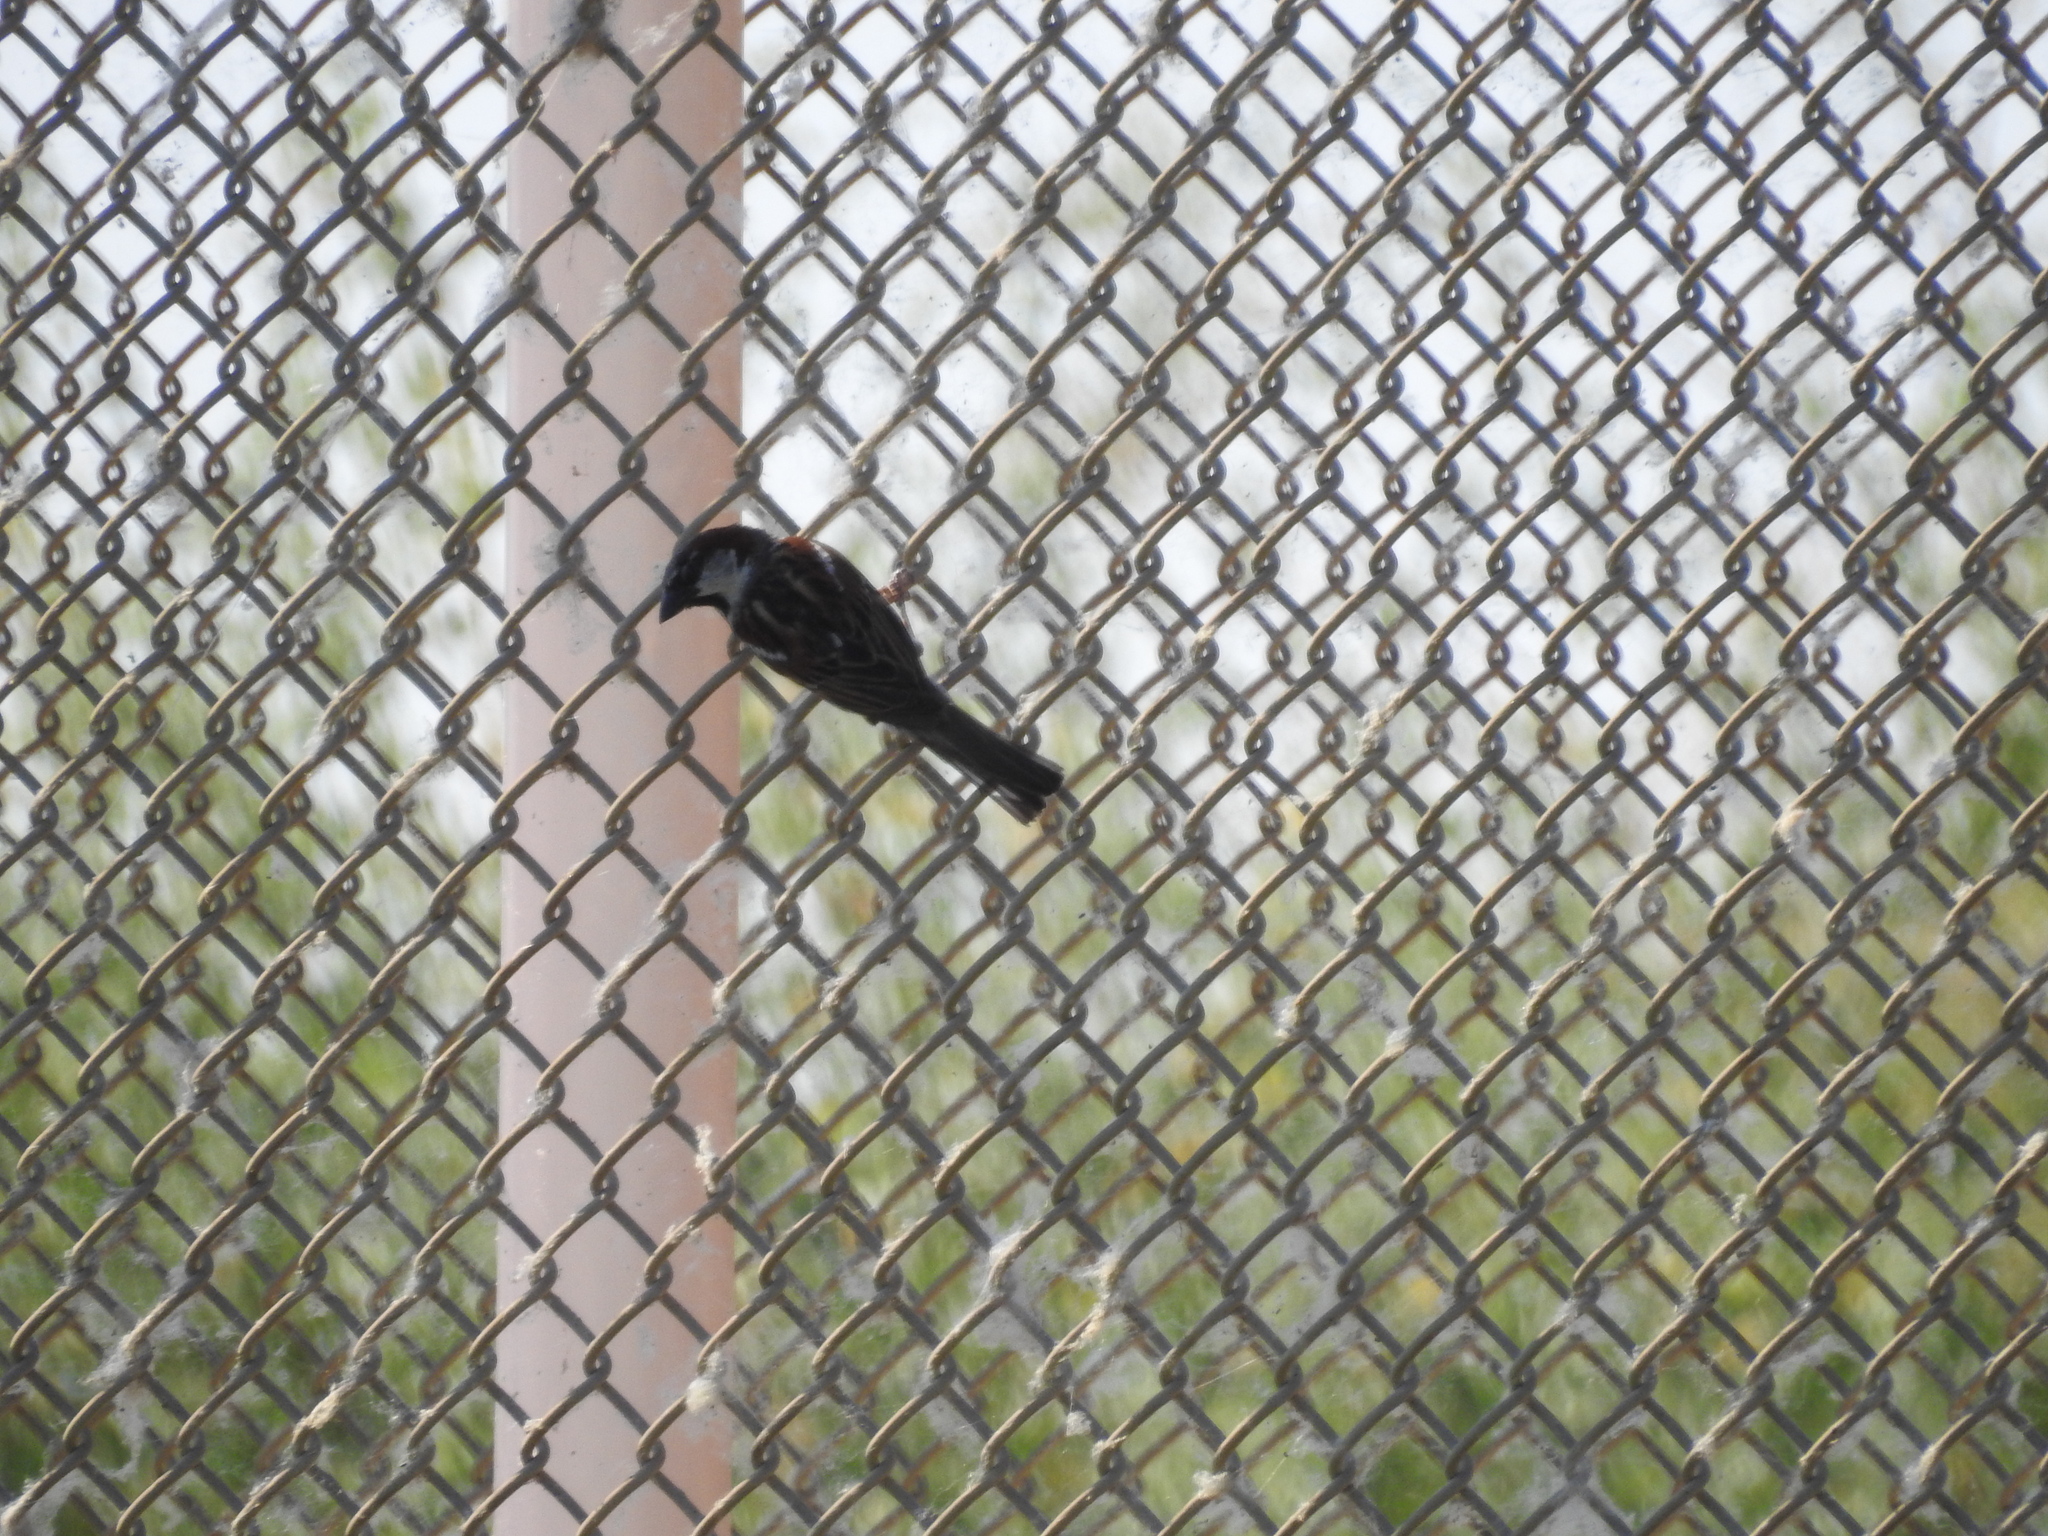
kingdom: Animalia
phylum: Chordata
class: Aves
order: Passeriformes
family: Passeridae
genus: Passer
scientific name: Passer domesticus
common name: House sparrow
